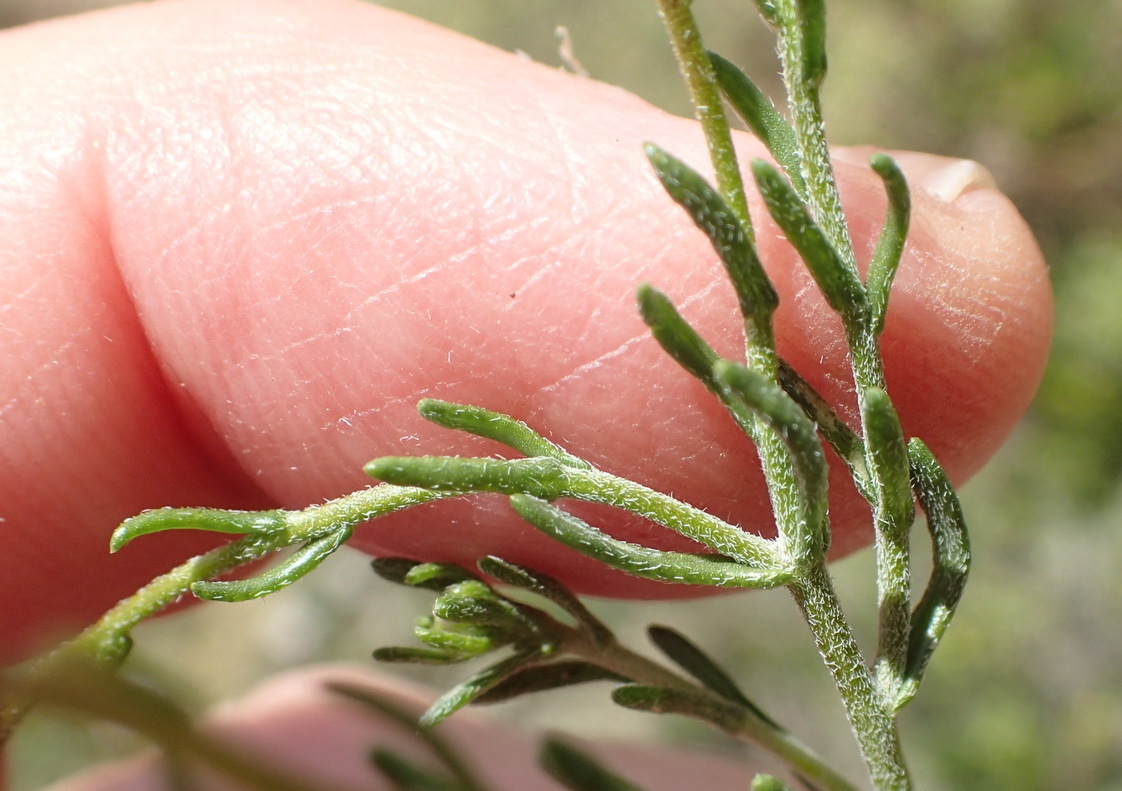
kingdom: Plantae
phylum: Tracheophyta
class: Magnoliopsida
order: Asterales
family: Asteraceae
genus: Felicia
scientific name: Felicia hirsuta
